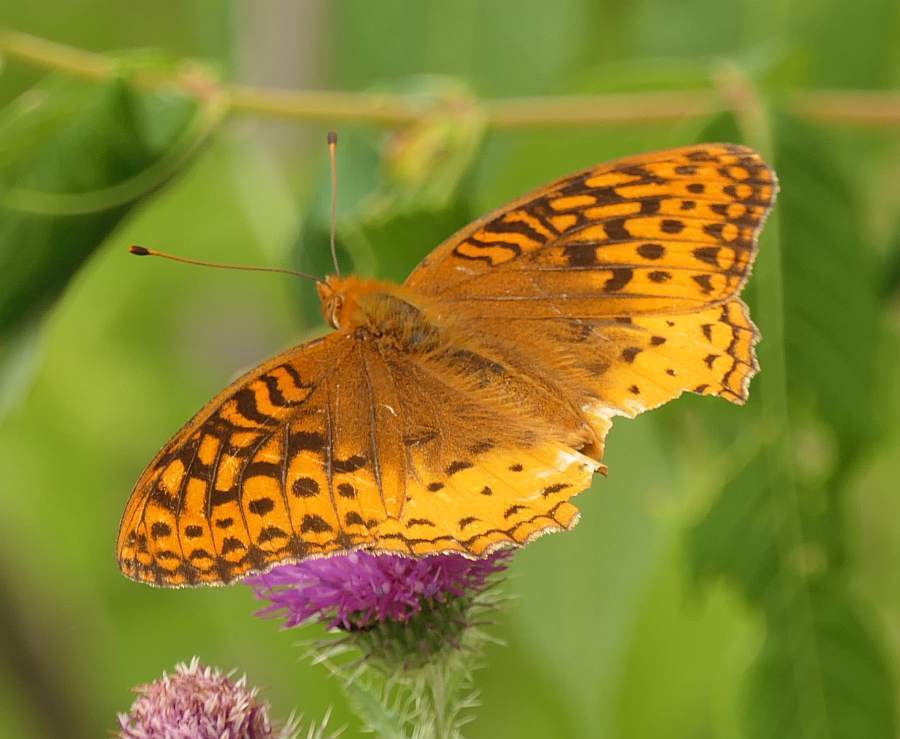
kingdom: Animalia
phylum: Arthropoda
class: Insecta
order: Lepidoptera
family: Nymphalidae
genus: Speyeria
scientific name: Speyeria cybele
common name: Great spangled fritillary
